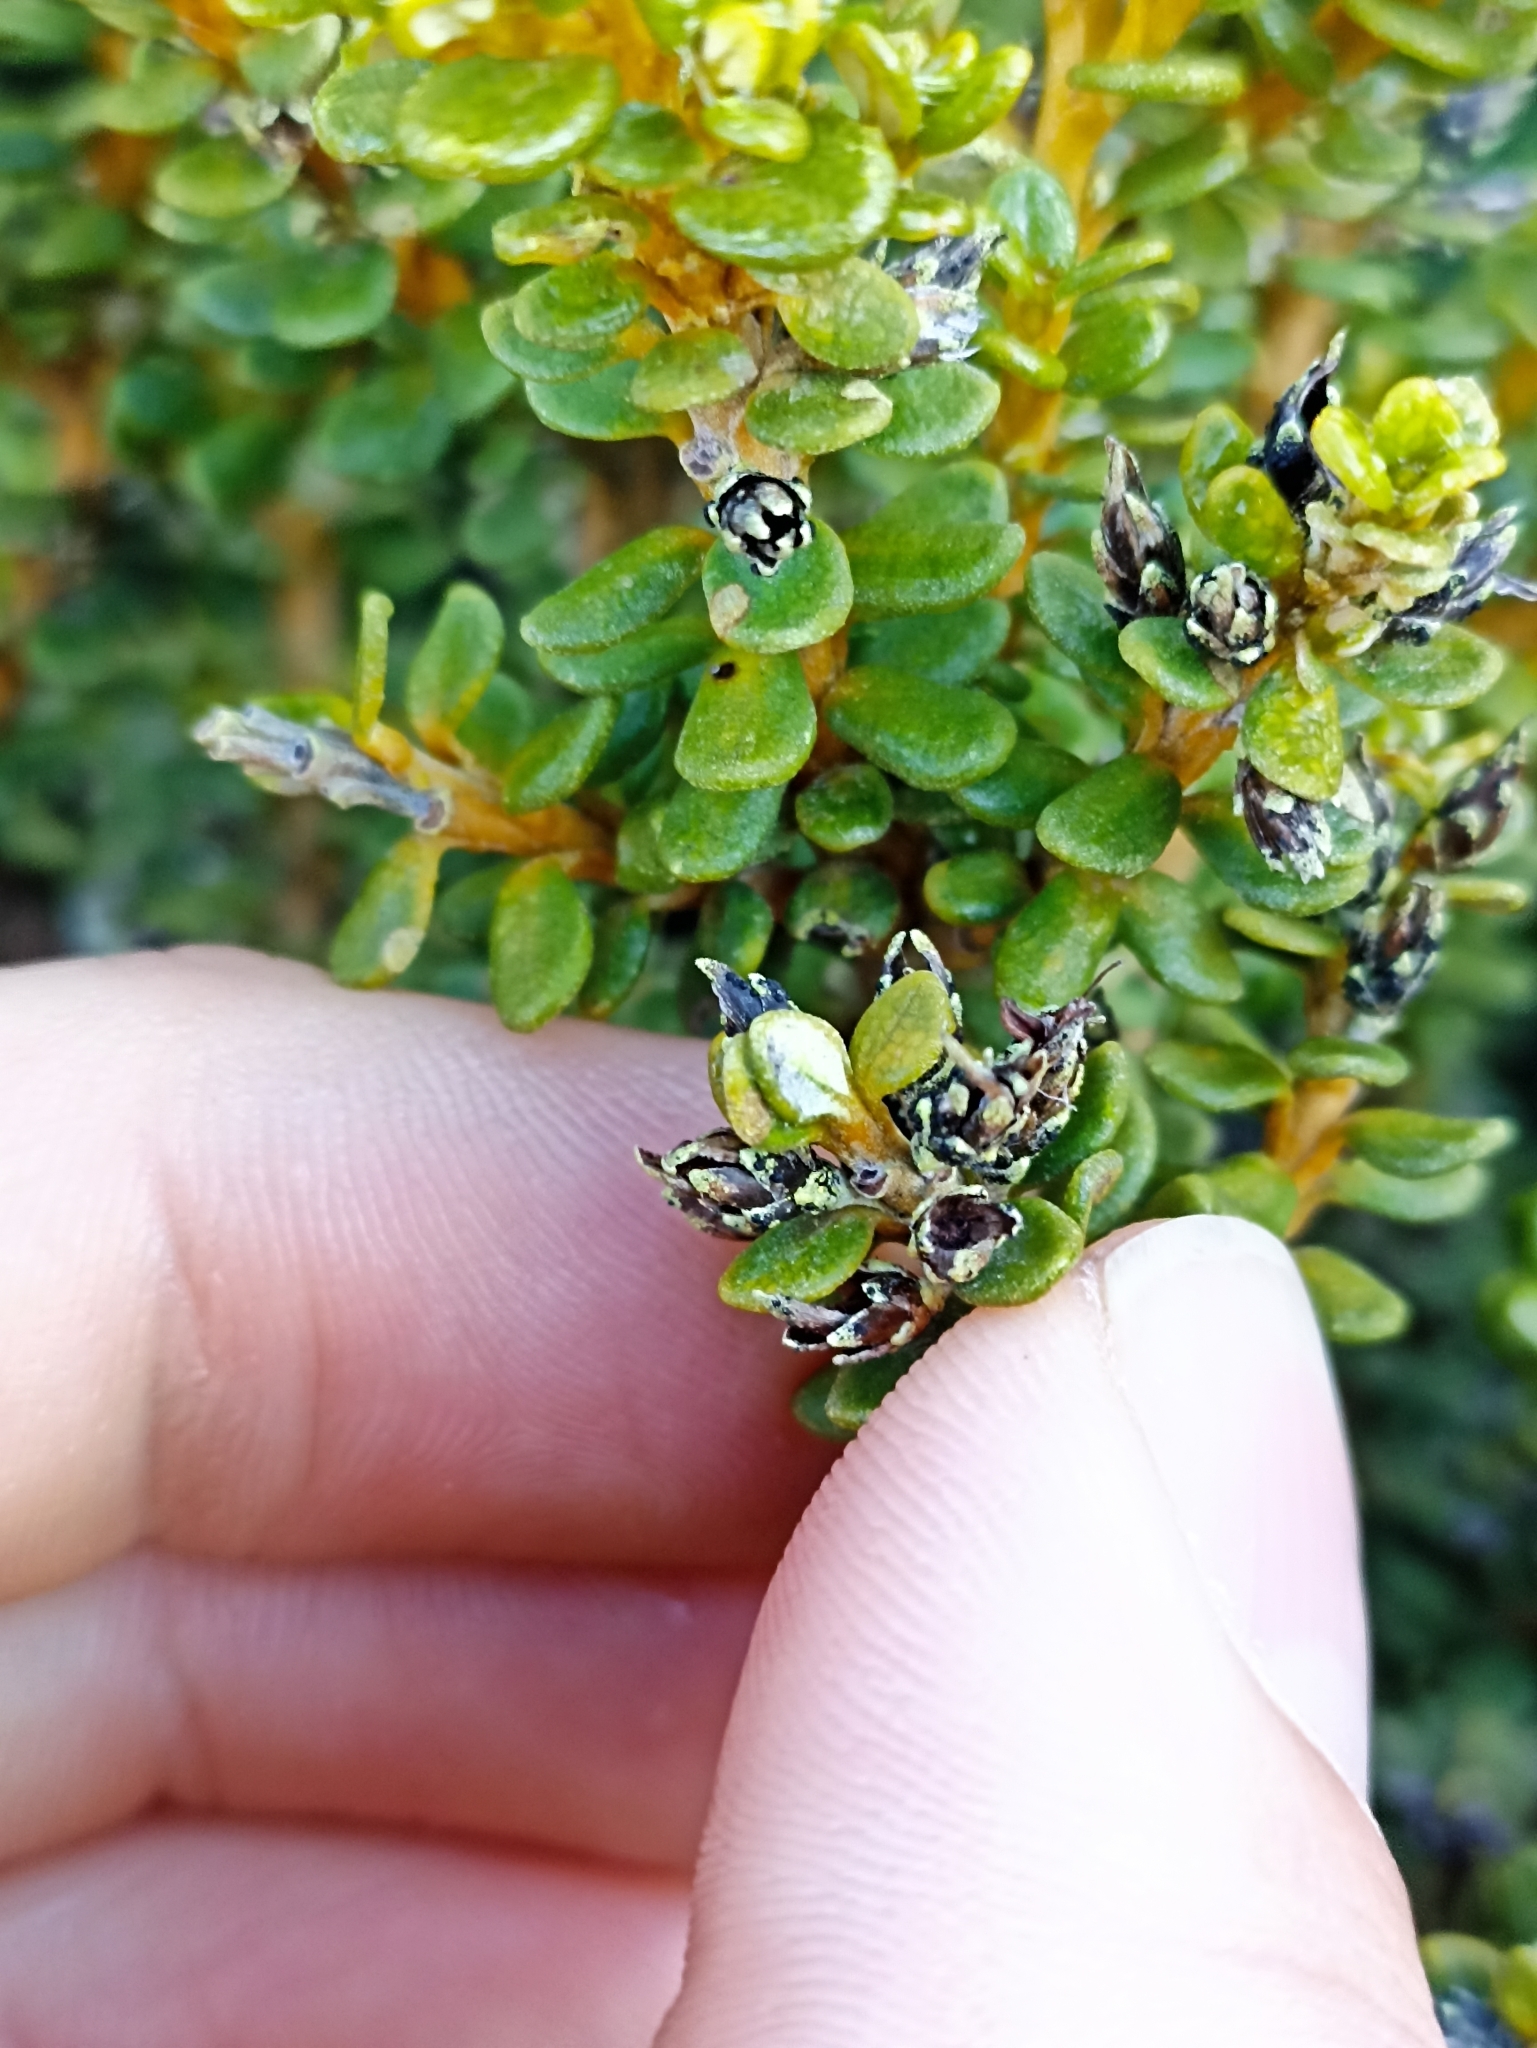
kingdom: Plantae
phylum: Tracheophyta
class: Magnoliopsida
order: Asterales
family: Asteraceae
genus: Olearia
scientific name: Olearia nummularifolia
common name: Sticky daisybush
